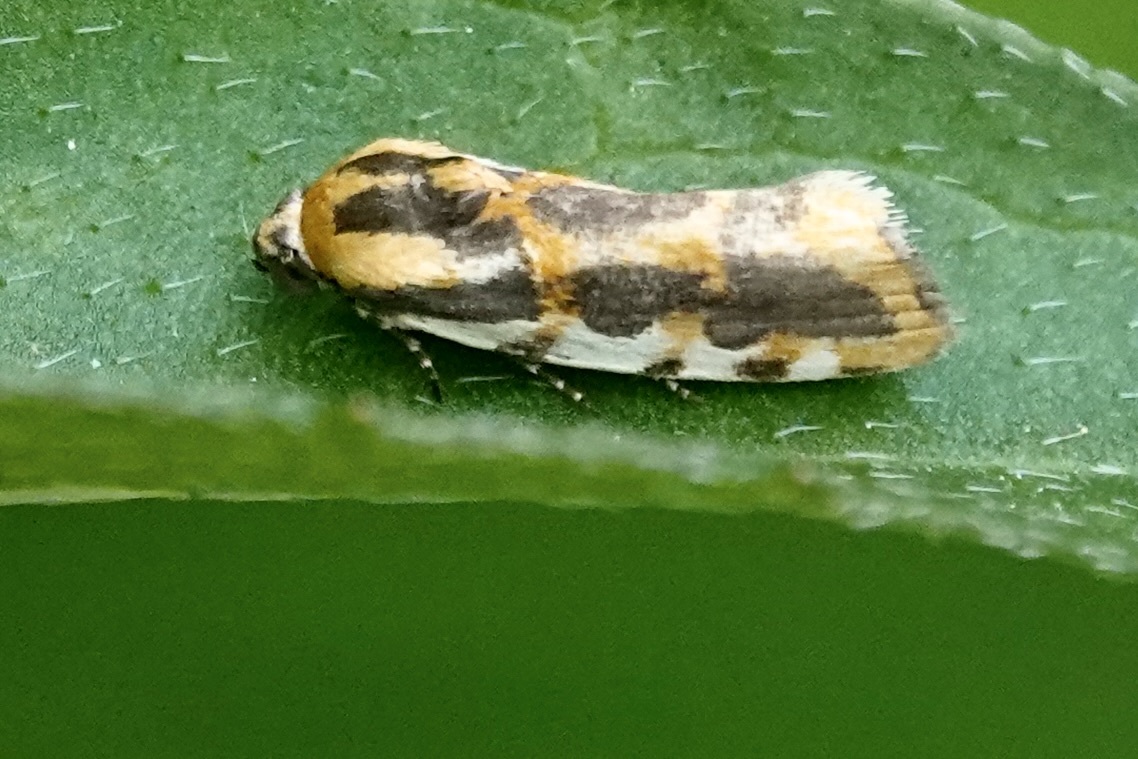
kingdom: Animalia
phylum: Arthropoda
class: Insecta
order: Lepidoptera
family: Noctuidae
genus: Acontia
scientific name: Acontia leo
